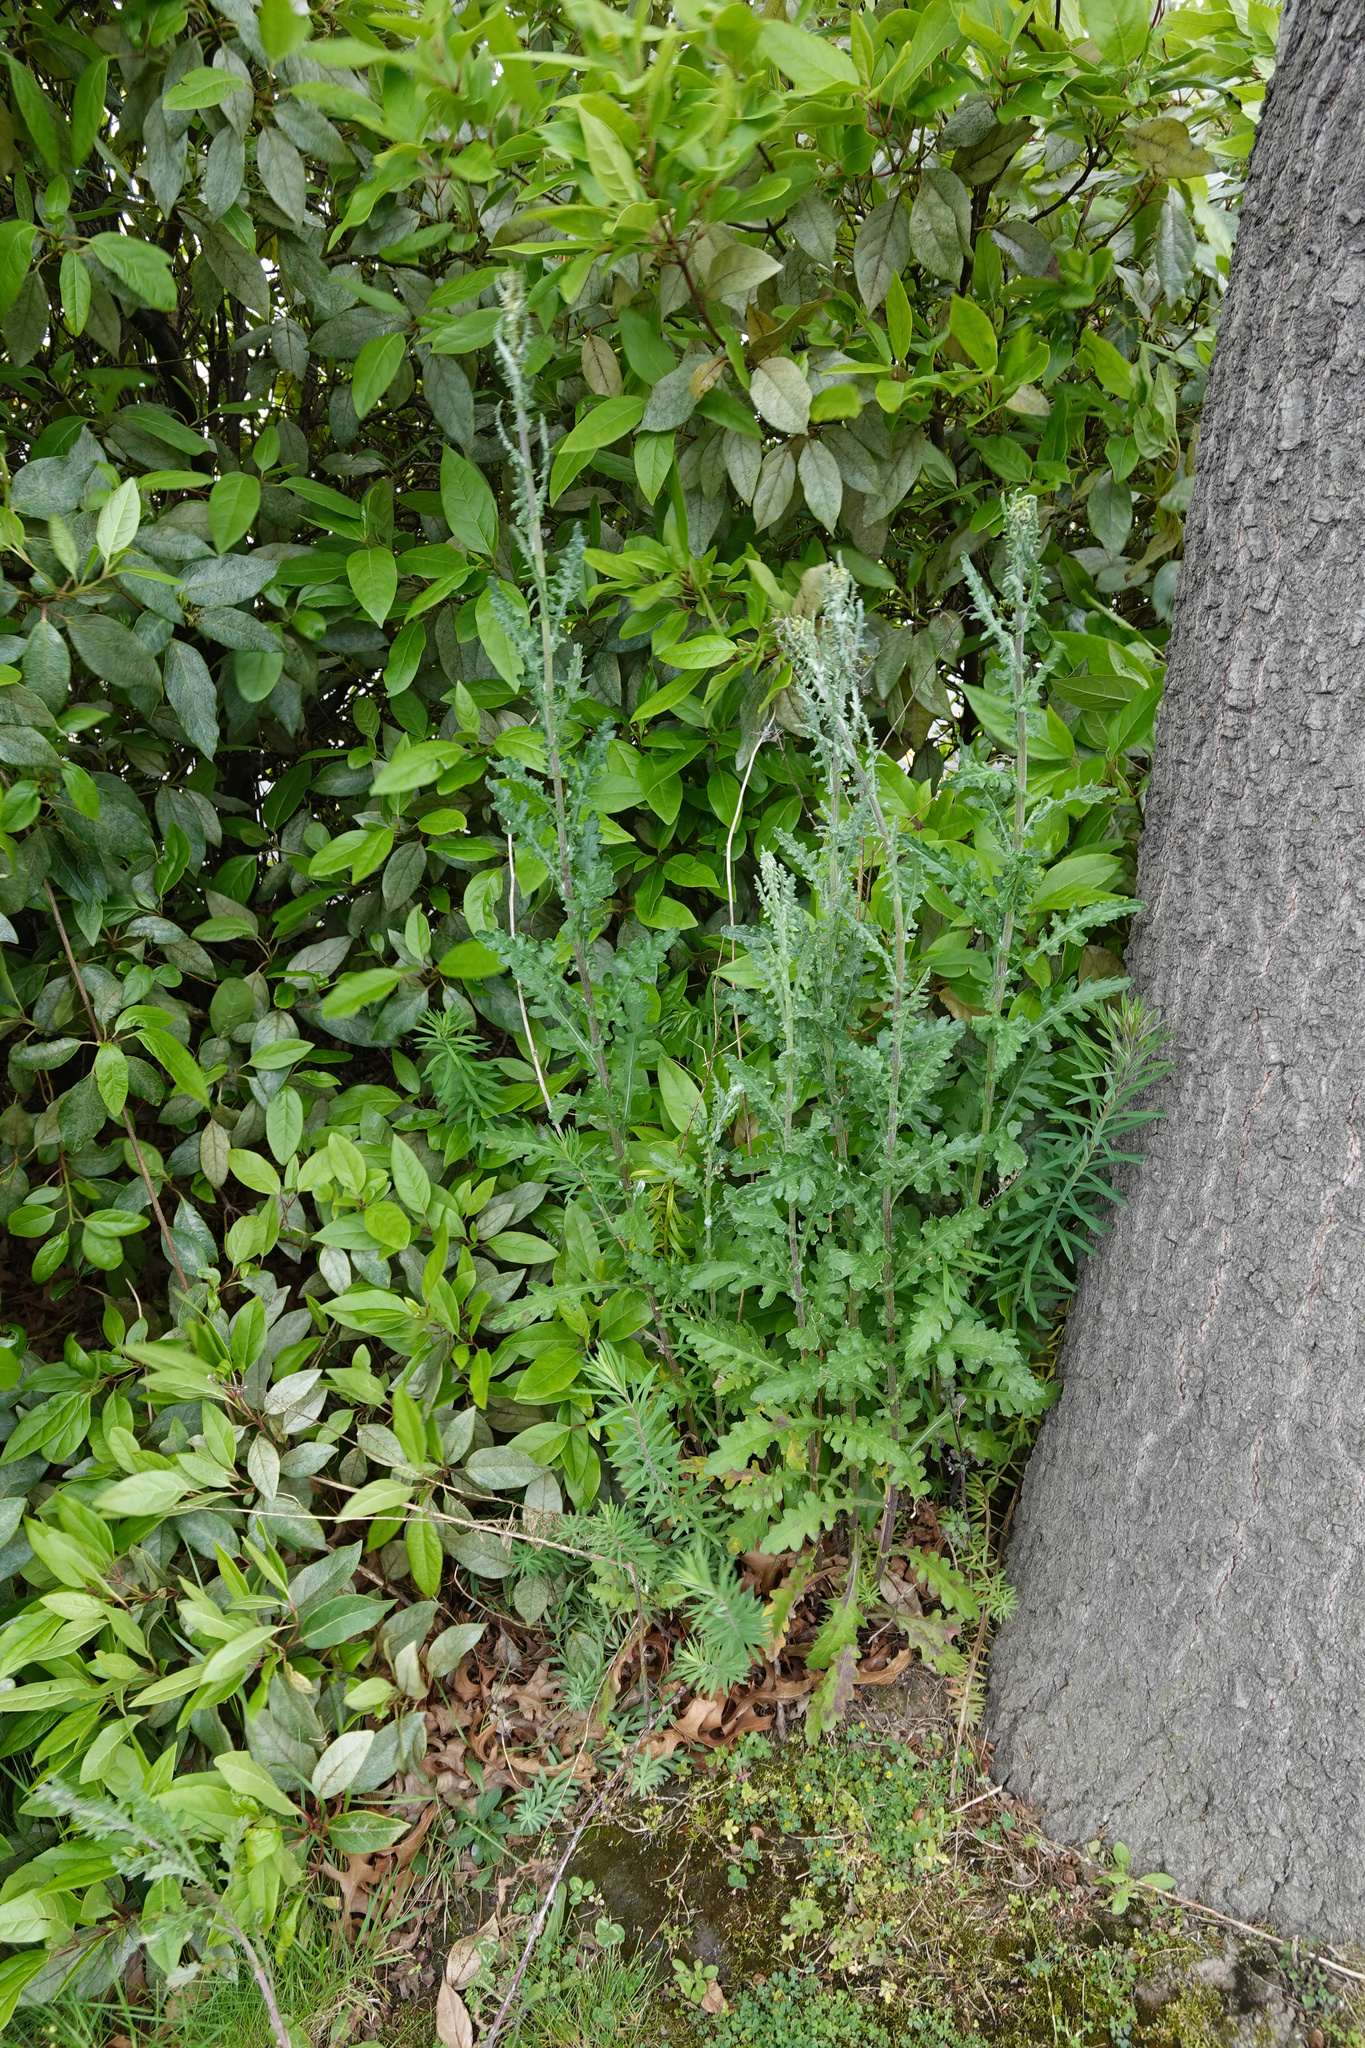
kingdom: Plantae
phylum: Tracheophyta
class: Magnoliopsida
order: Asterales
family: Asteraceae
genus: Senecio
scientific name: Senecio glomeratus
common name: Cutleaf burnweed
